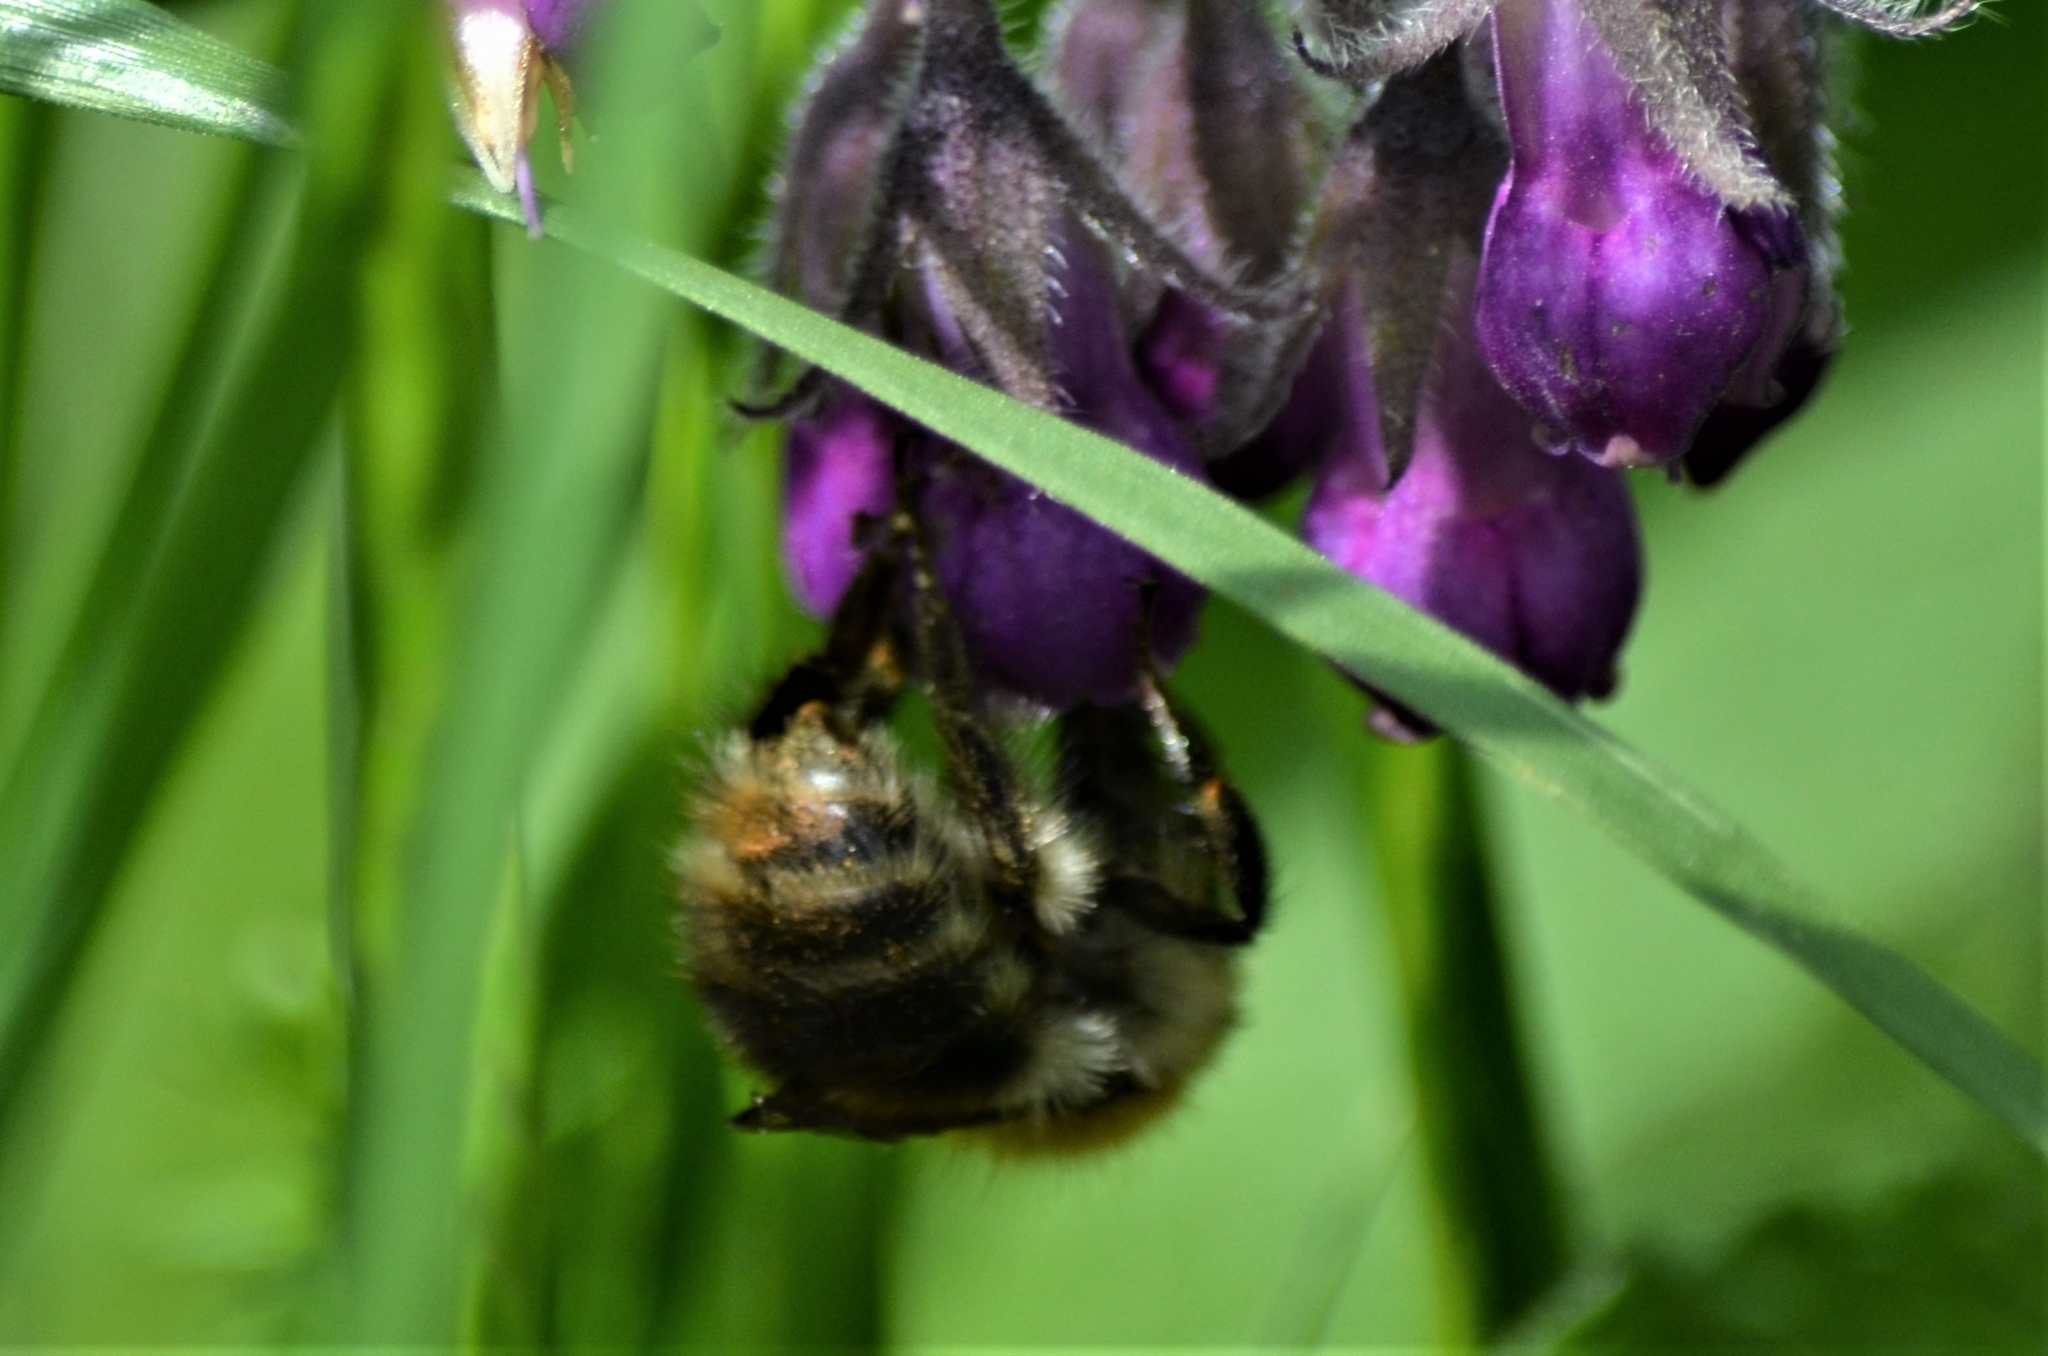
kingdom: Animalia
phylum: Arthropoda
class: Insecta
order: Hymenoptera
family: Apidae
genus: Bombus
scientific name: Bombus pascuorum
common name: Common carder bee
